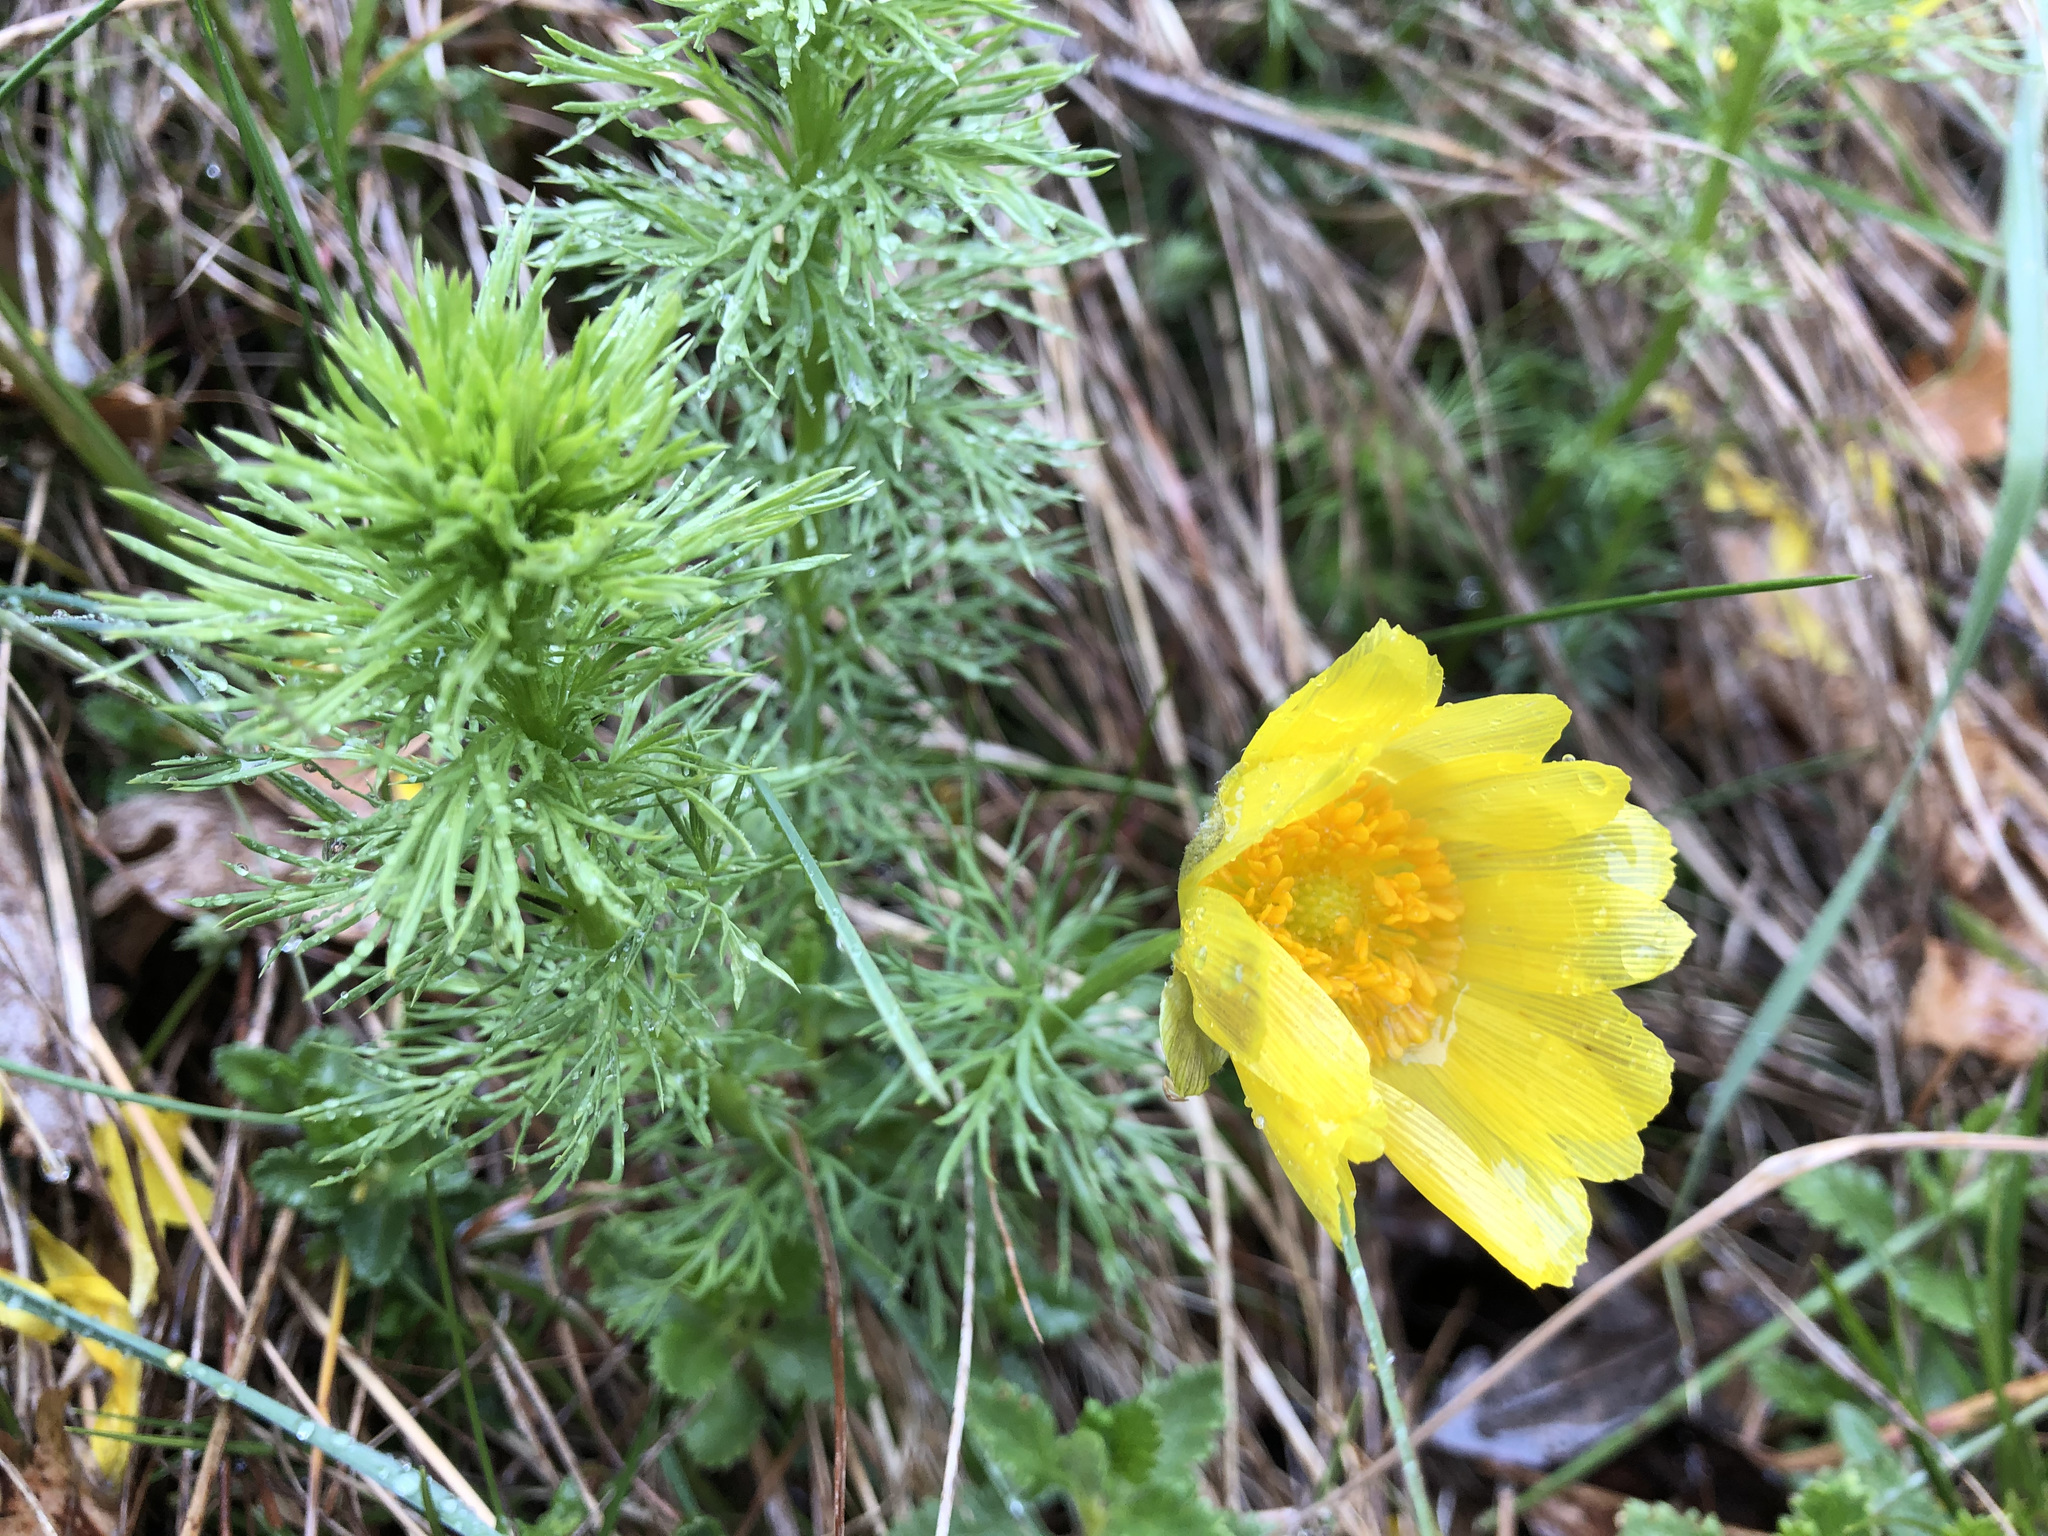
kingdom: Plantae
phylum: Tracheophyta
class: Magnoliopsida
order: Ranunculales
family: Ranunculaceae
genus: Adonis
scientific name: Adonis vernalis
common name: Yellow pheasants-eye
